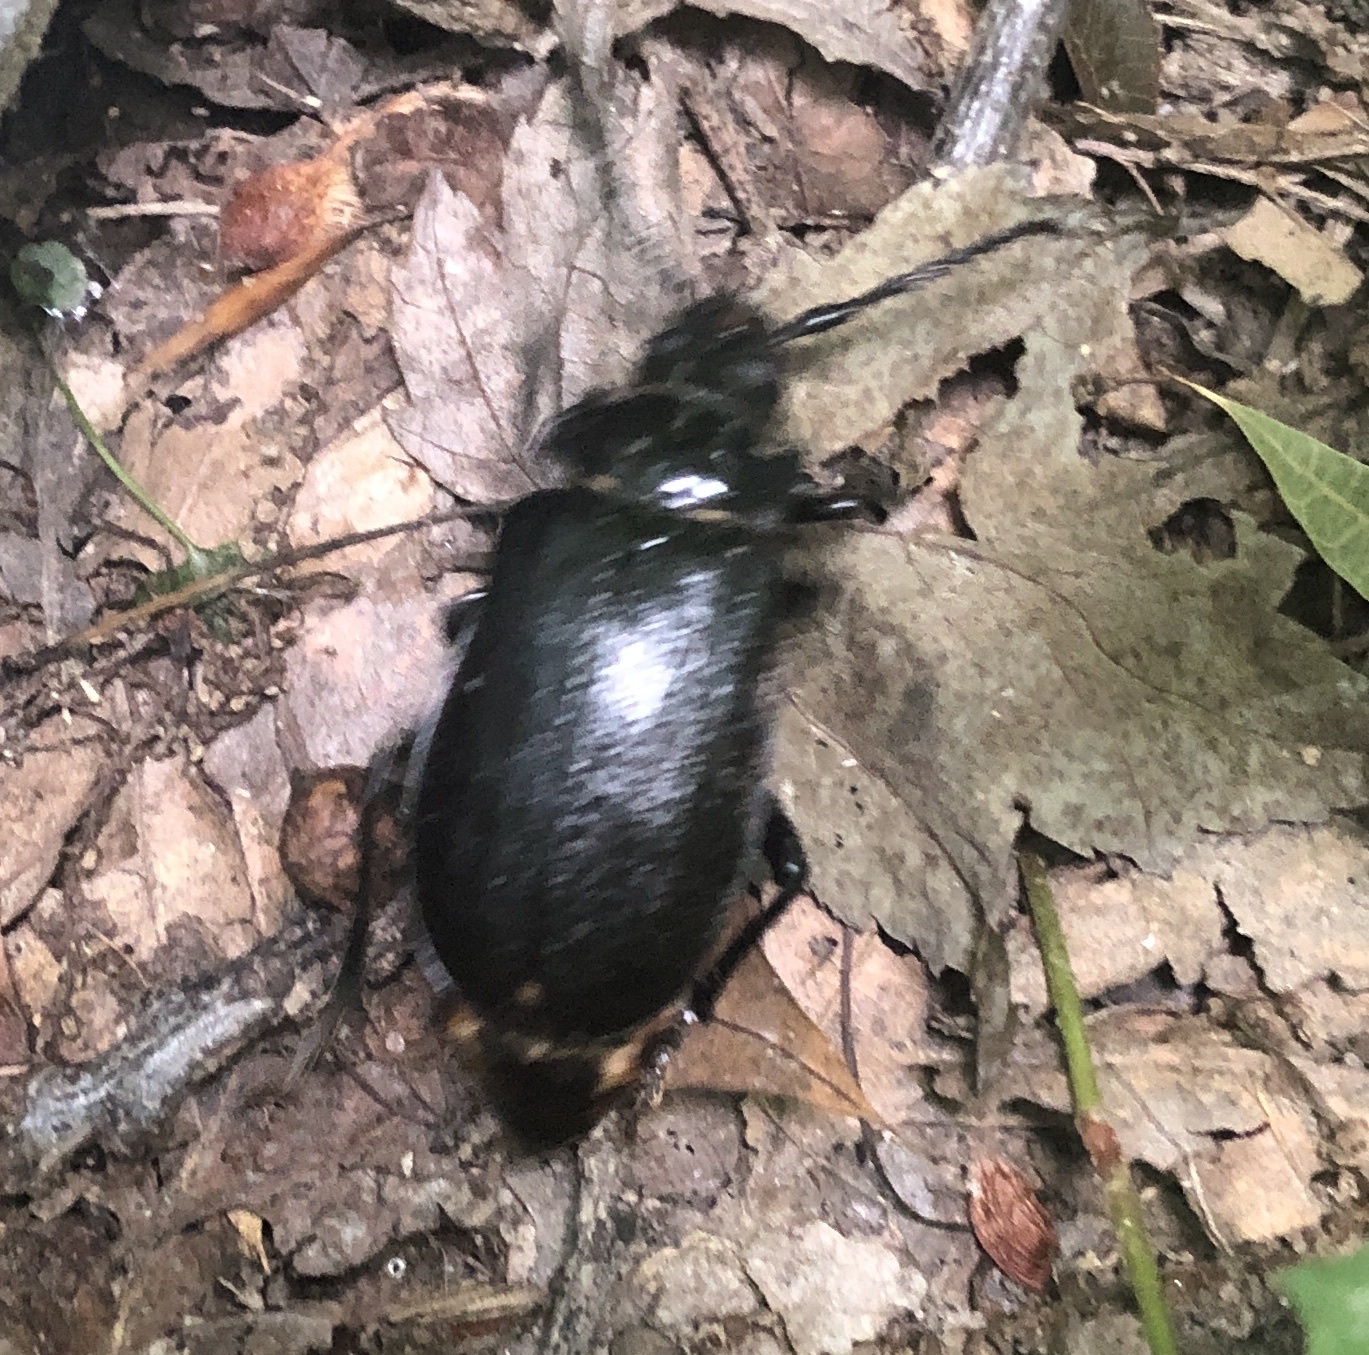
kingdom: Animalia
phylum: Arthropoda
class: Insecta
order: Coleoptera
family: Cerambycidae
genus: Prionus
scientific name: Prionus laticollis
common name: Broad necked prionus
